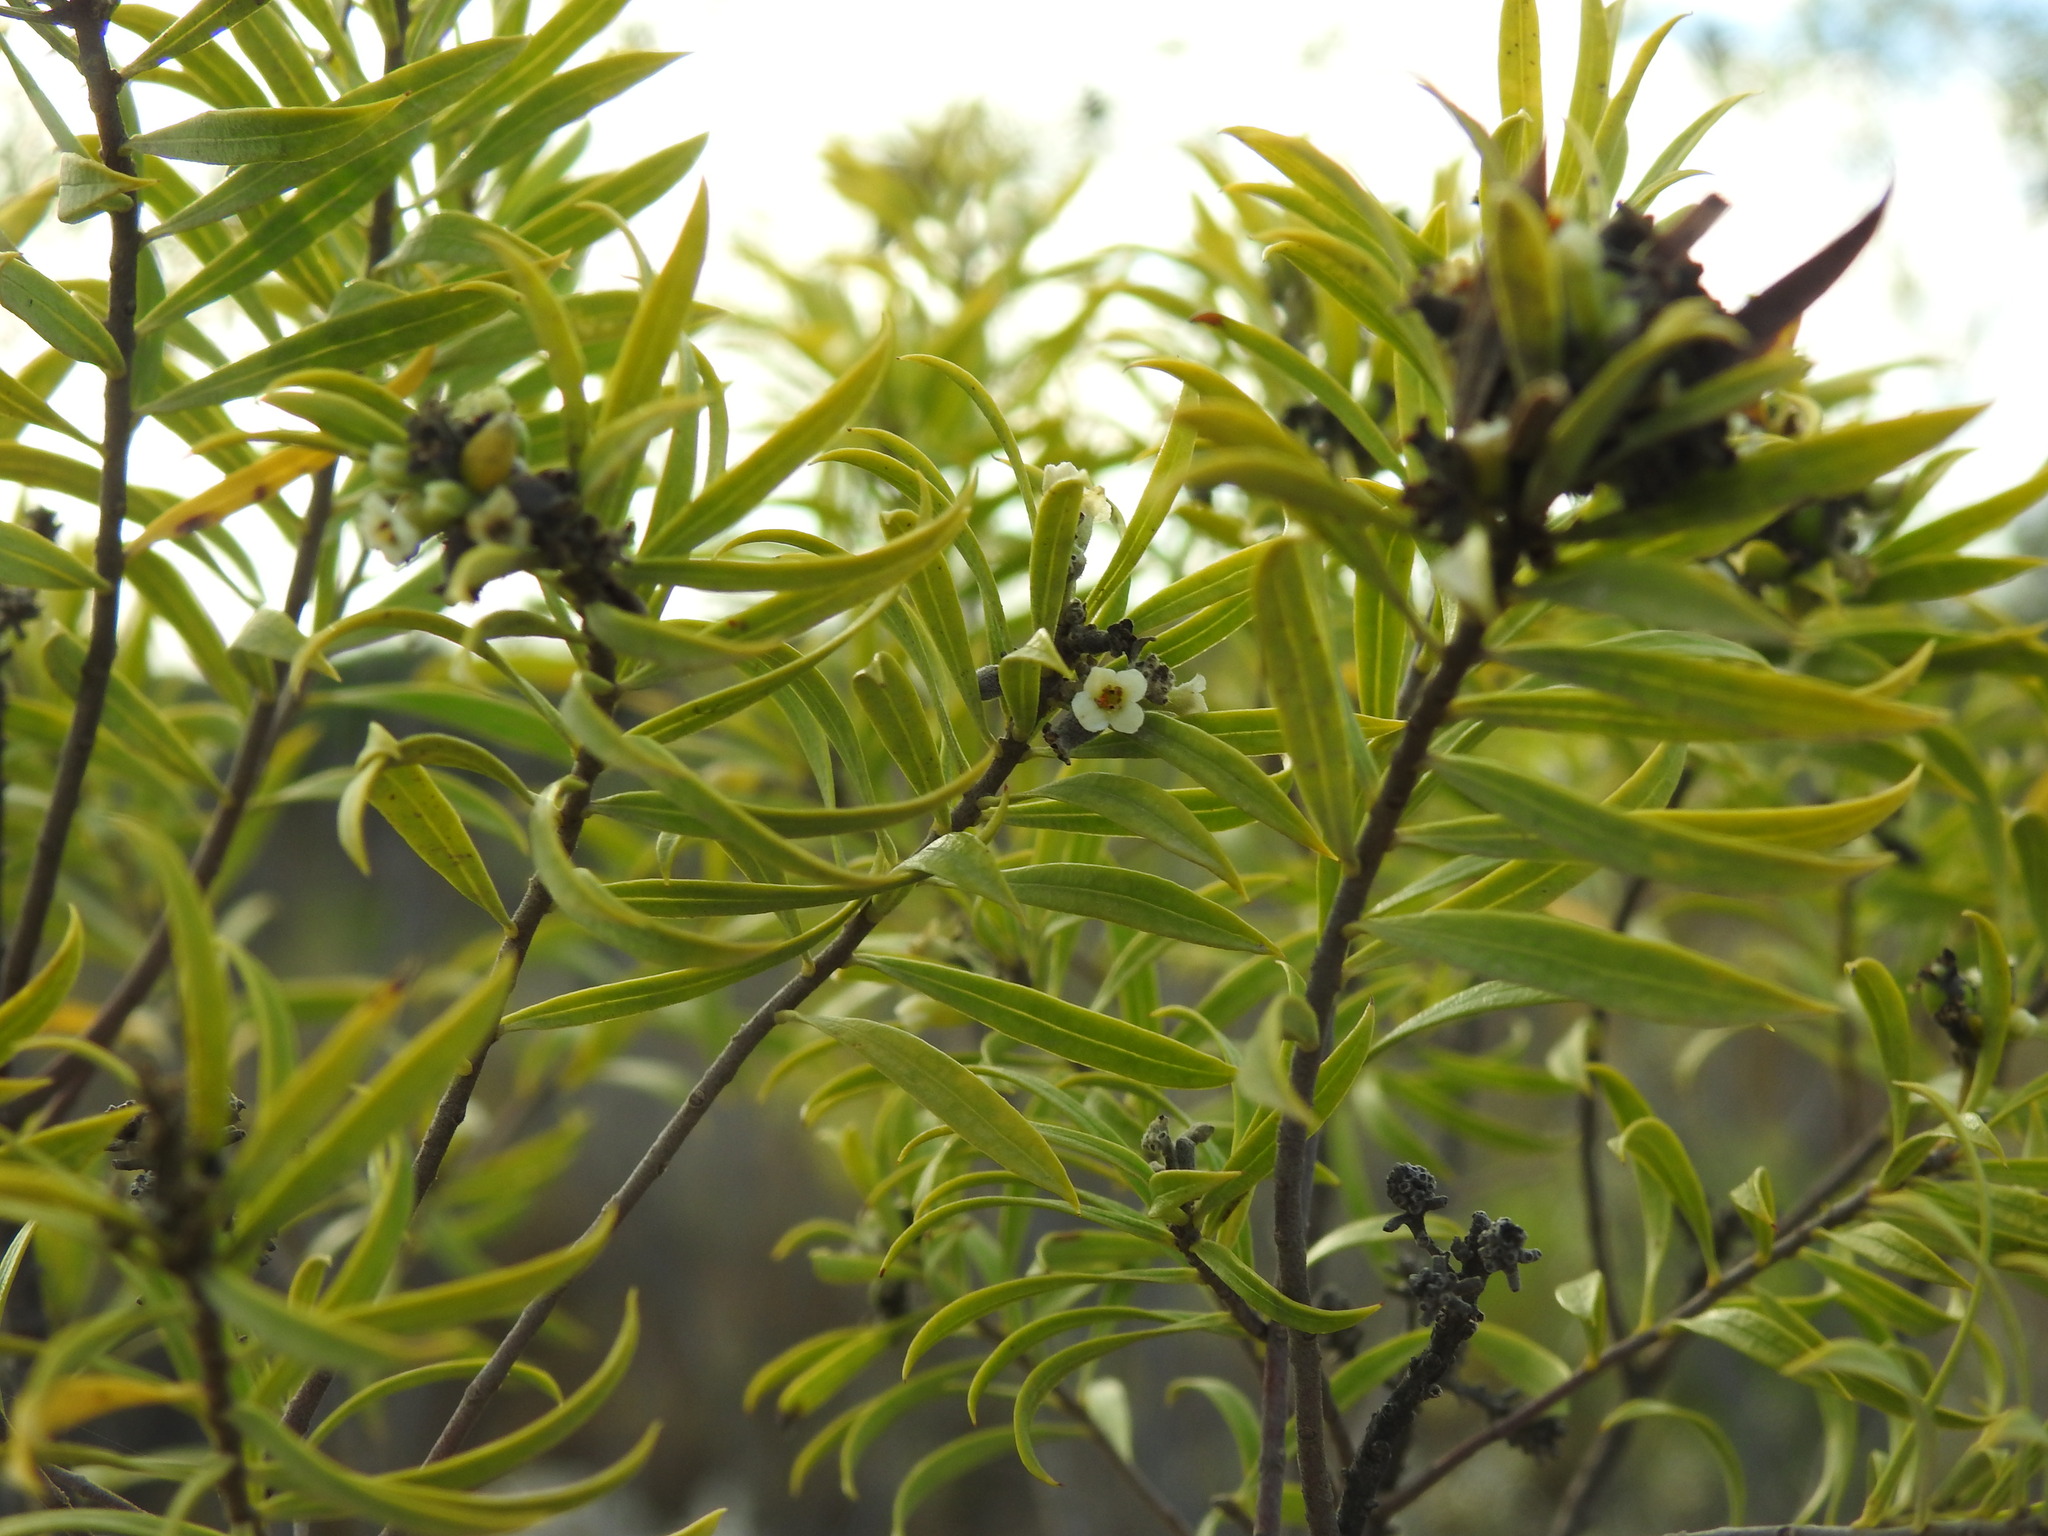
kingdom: Plantae
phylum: Tracheophyta
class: Magnoliopsida
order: Malvales
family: Thymelaeaceae
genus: Daphne
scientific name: Daphne gnidium
